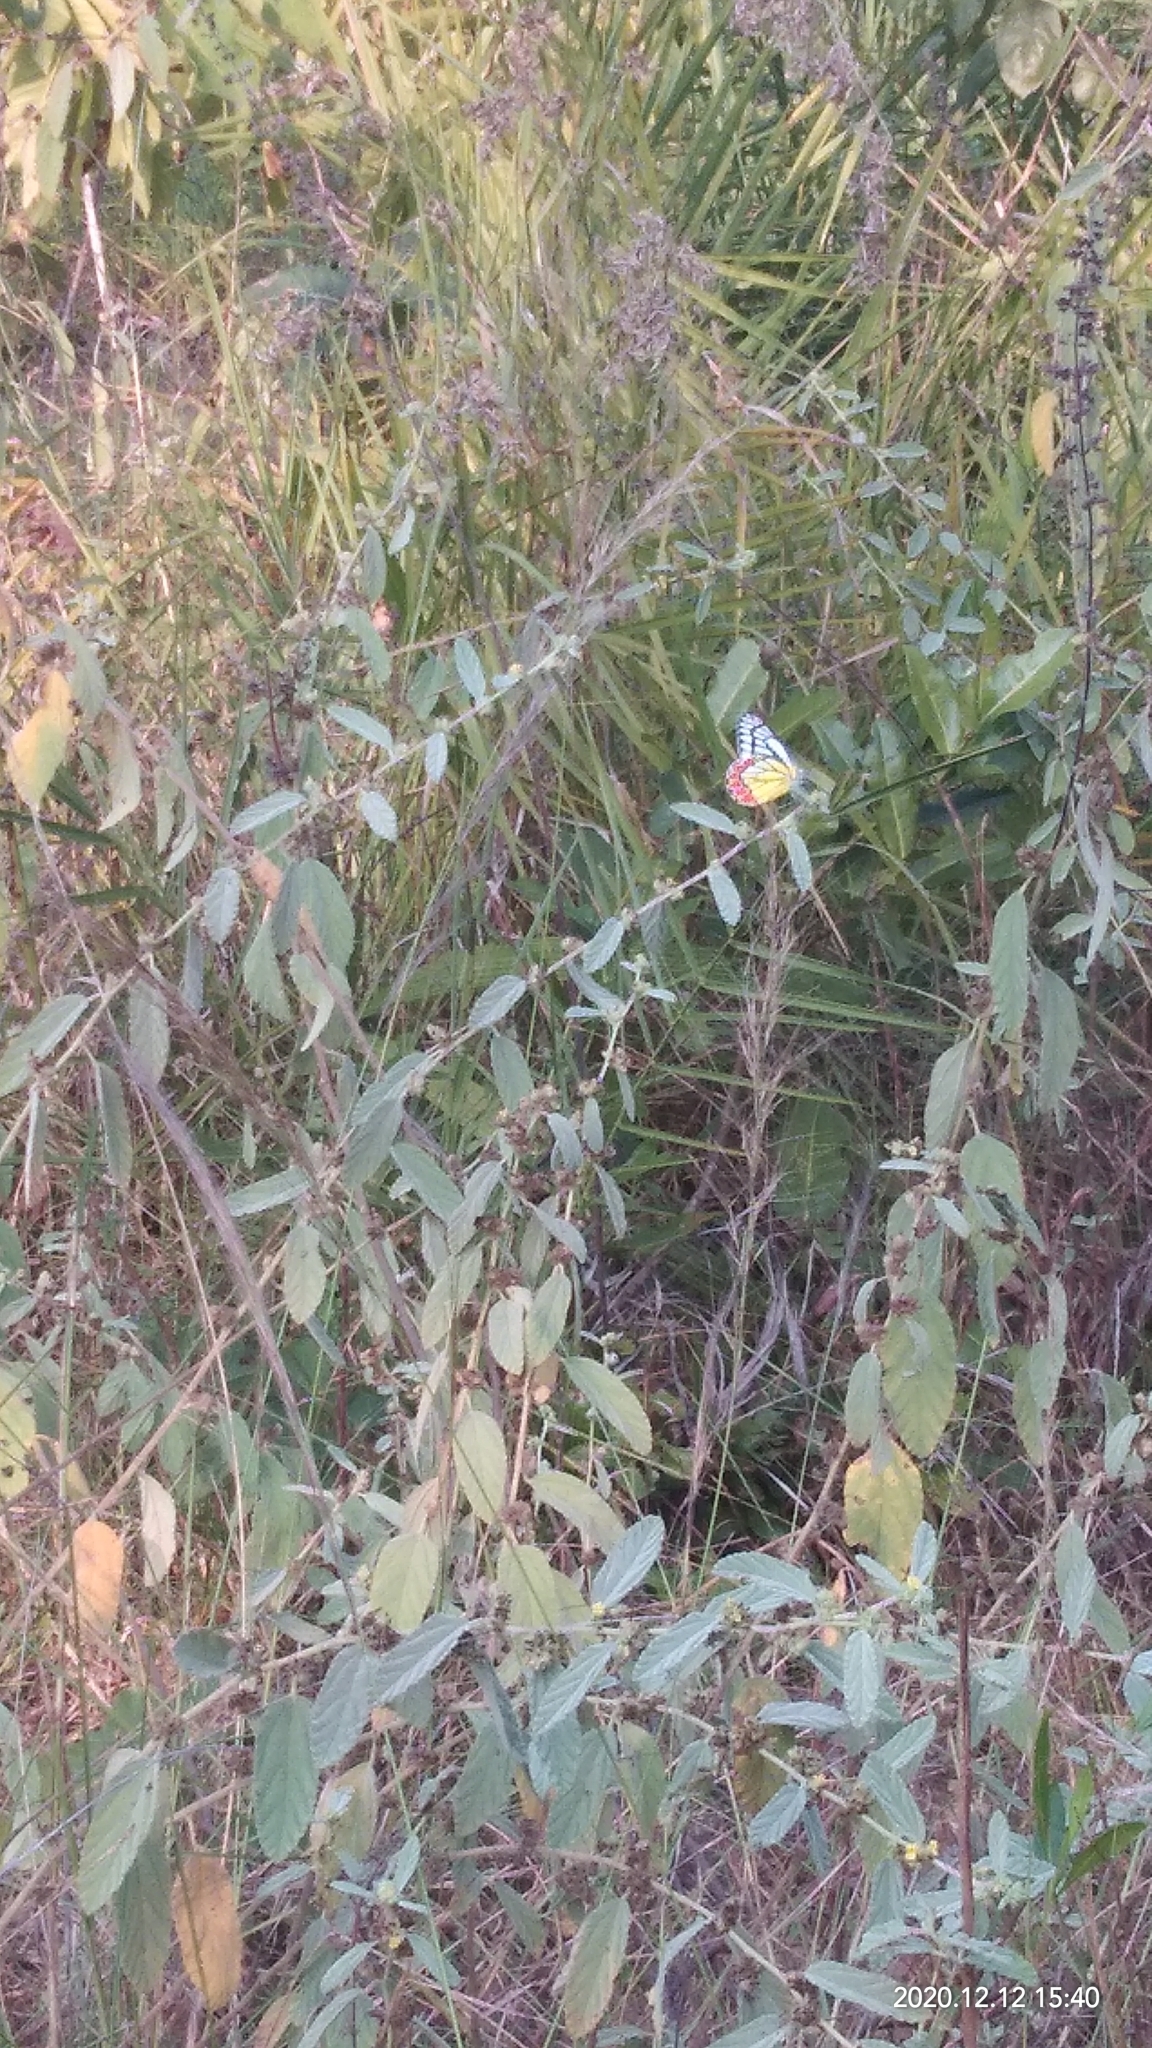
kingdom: Animalia
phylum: Arthropoda
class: Insecta
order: Lepidoptera
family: Pieridae
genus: Delias
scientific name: Delias eucharis
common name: Common jezebel
